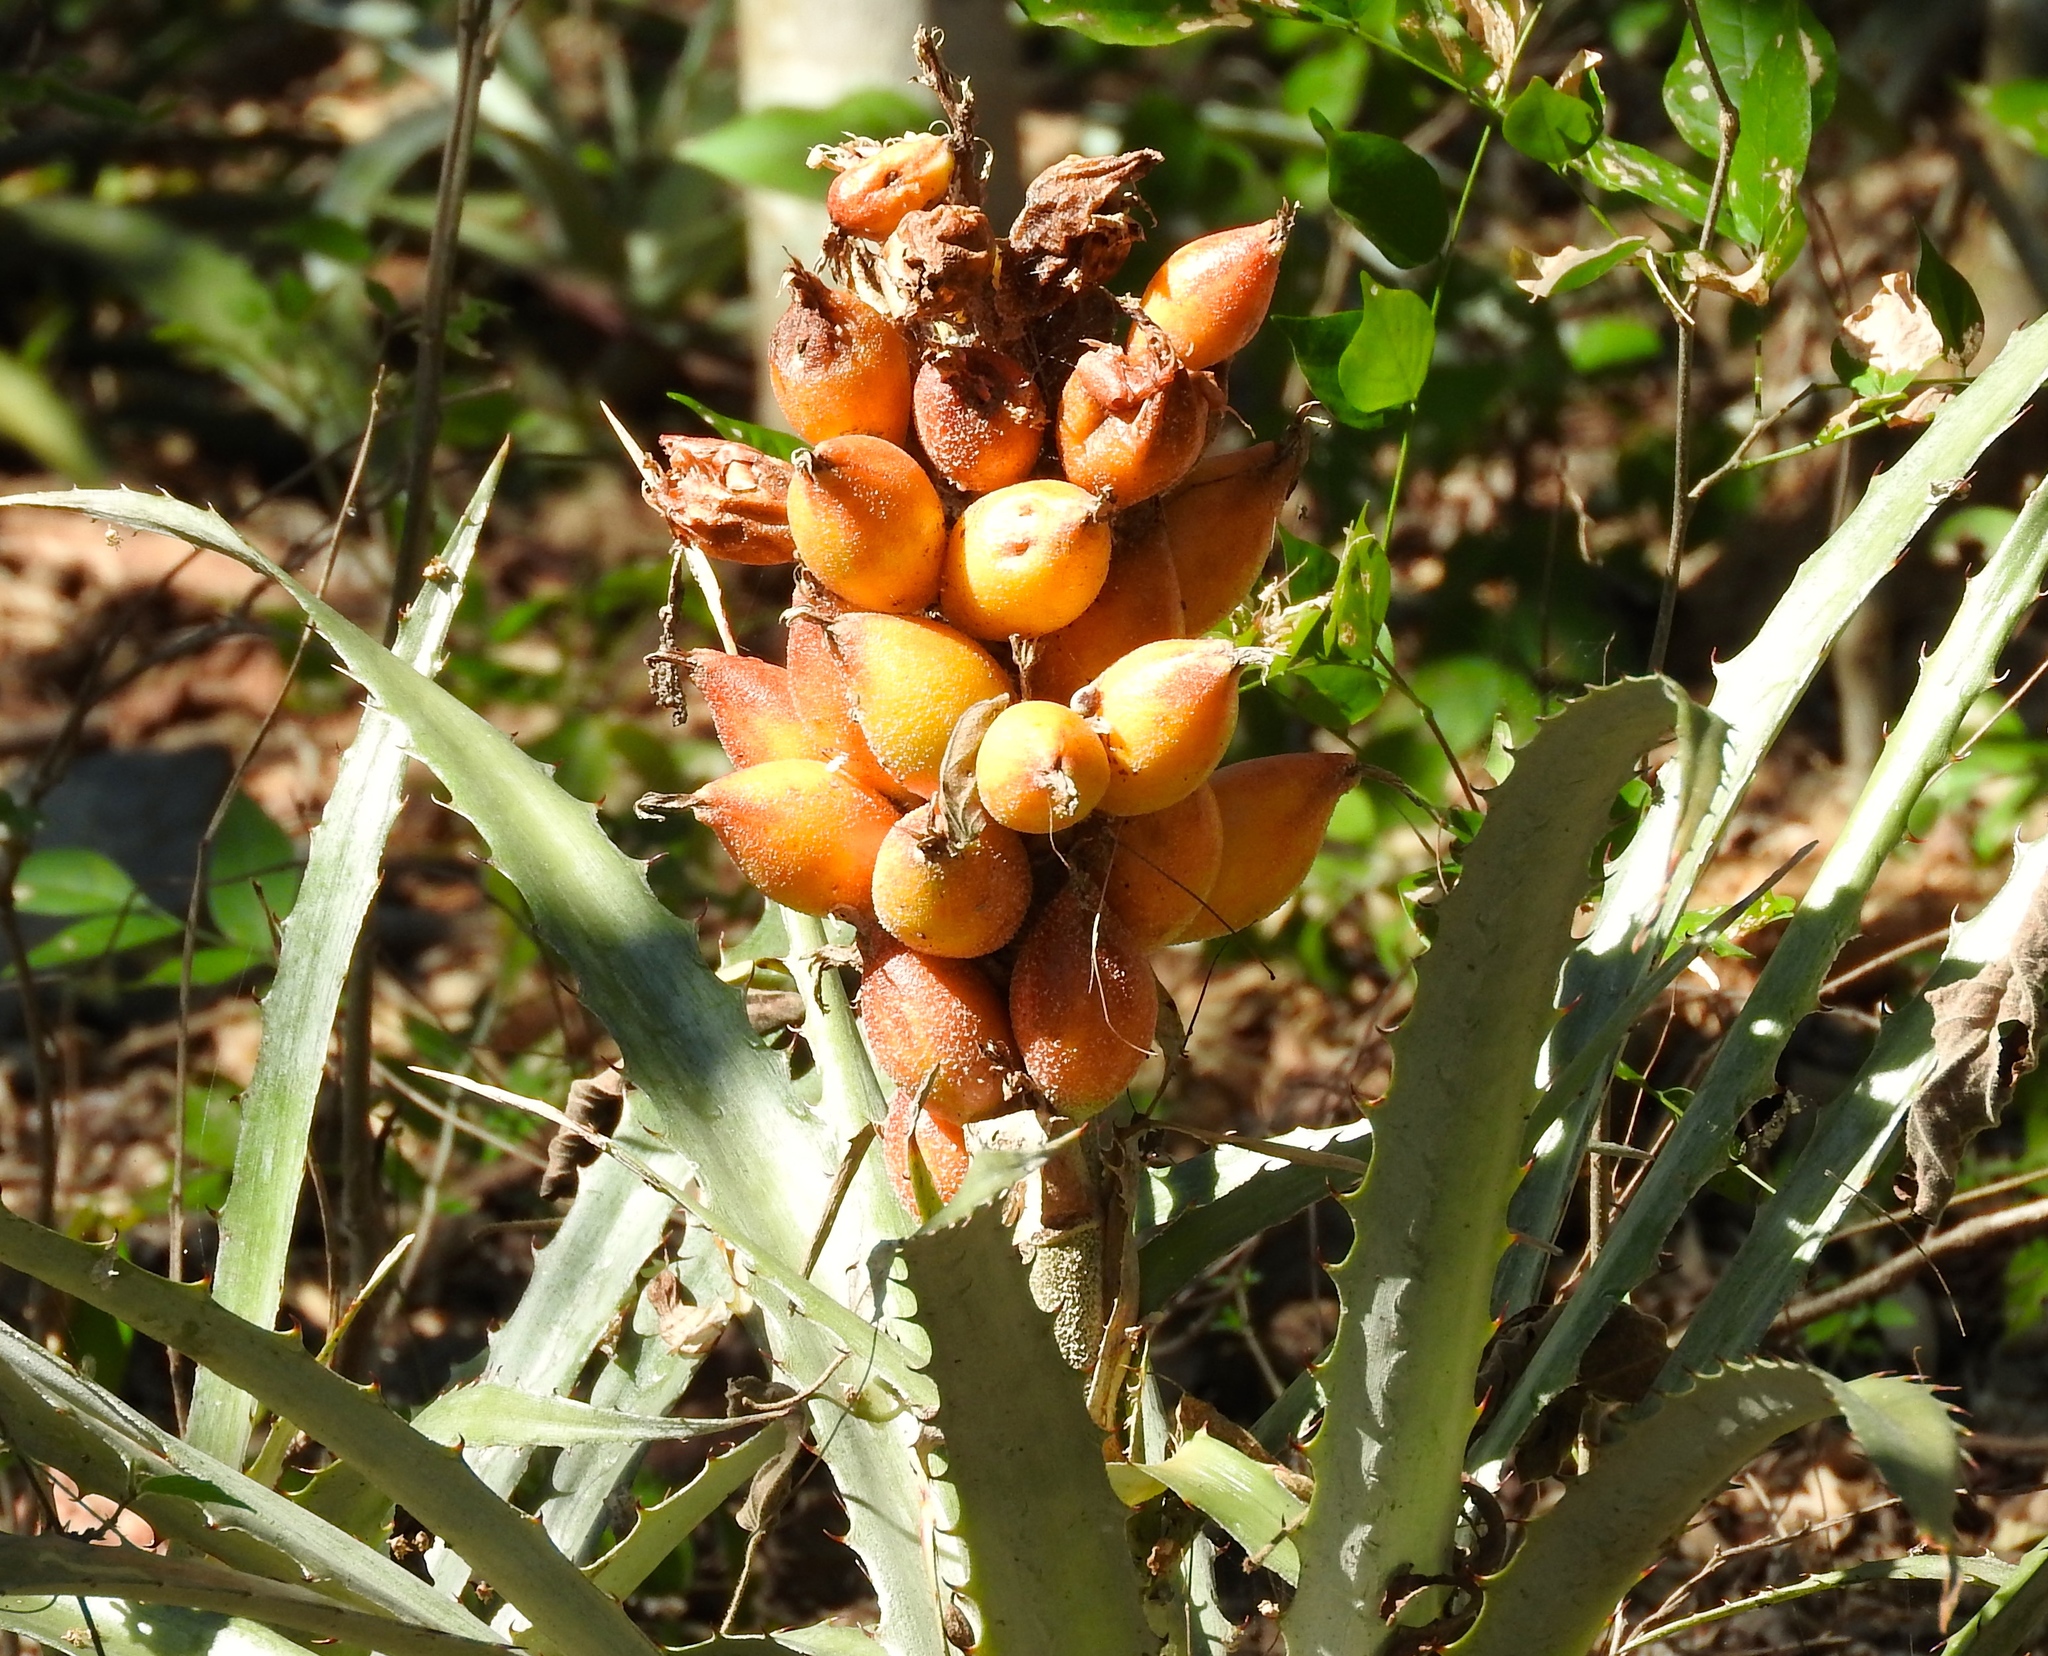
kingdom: Plantae
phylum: Tracheophyta
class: Liliopsida
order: Poales
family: Bromeliaceae
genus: Bromelia
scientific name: Bromelia pinguin
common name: Pinguin
